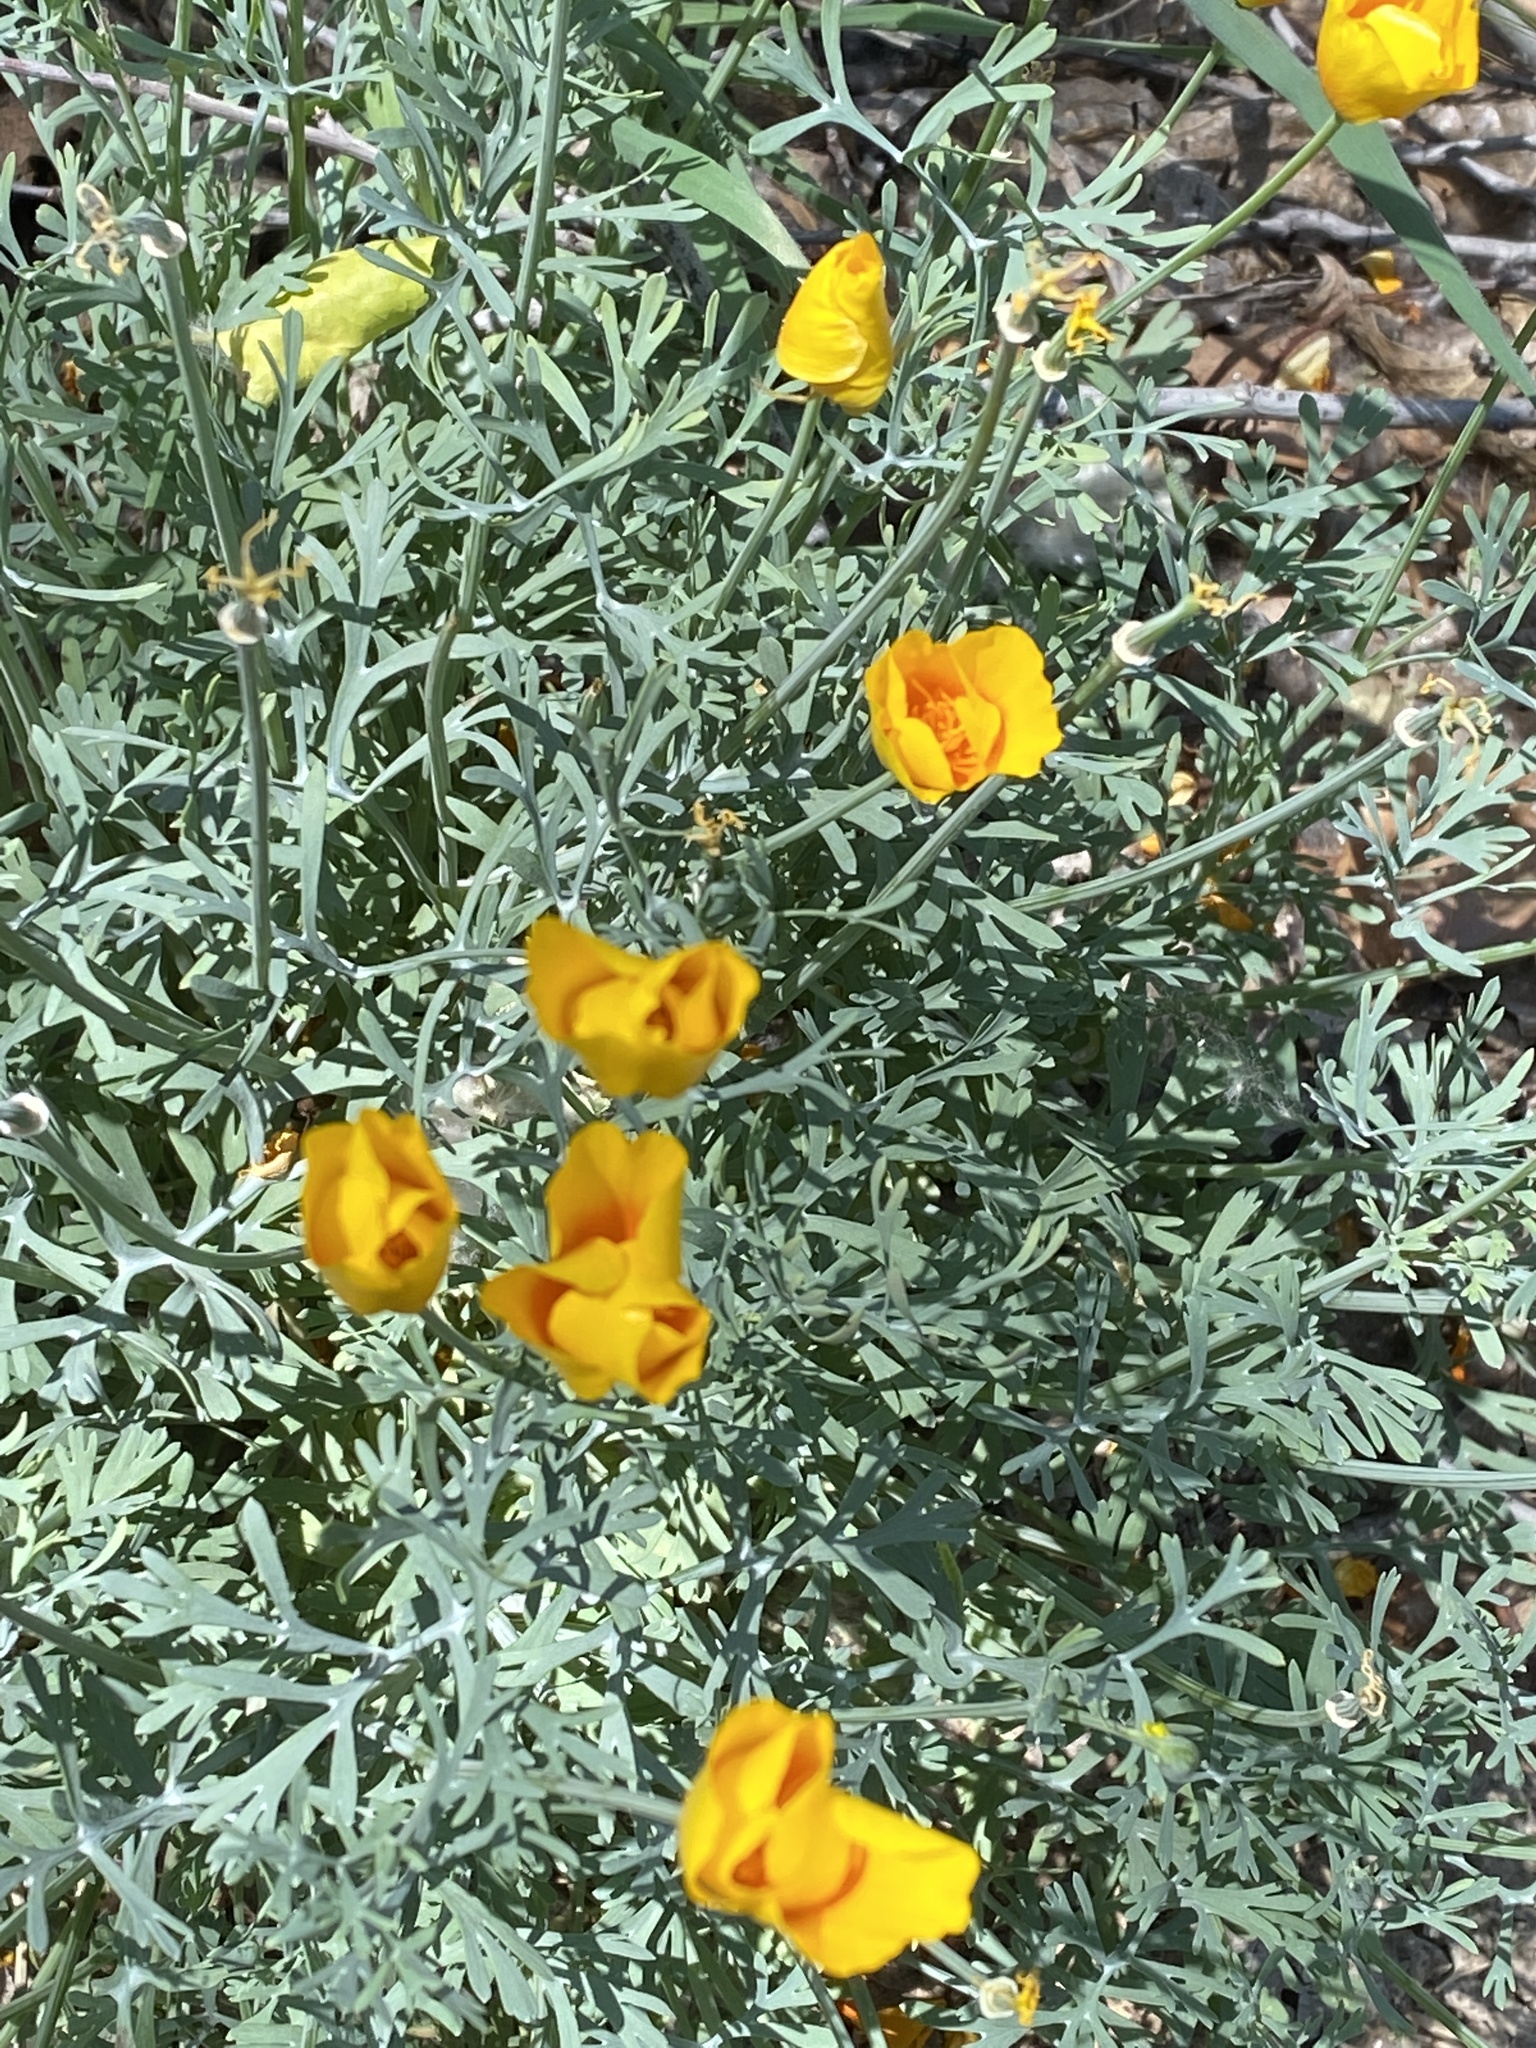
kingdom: Plantae
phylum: Tracheophyta
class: Magnoliopsida
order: Ranunculales
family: Papaveraceae
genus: Eschscholzia
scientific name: Eschscholzia californica
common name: California poppy
